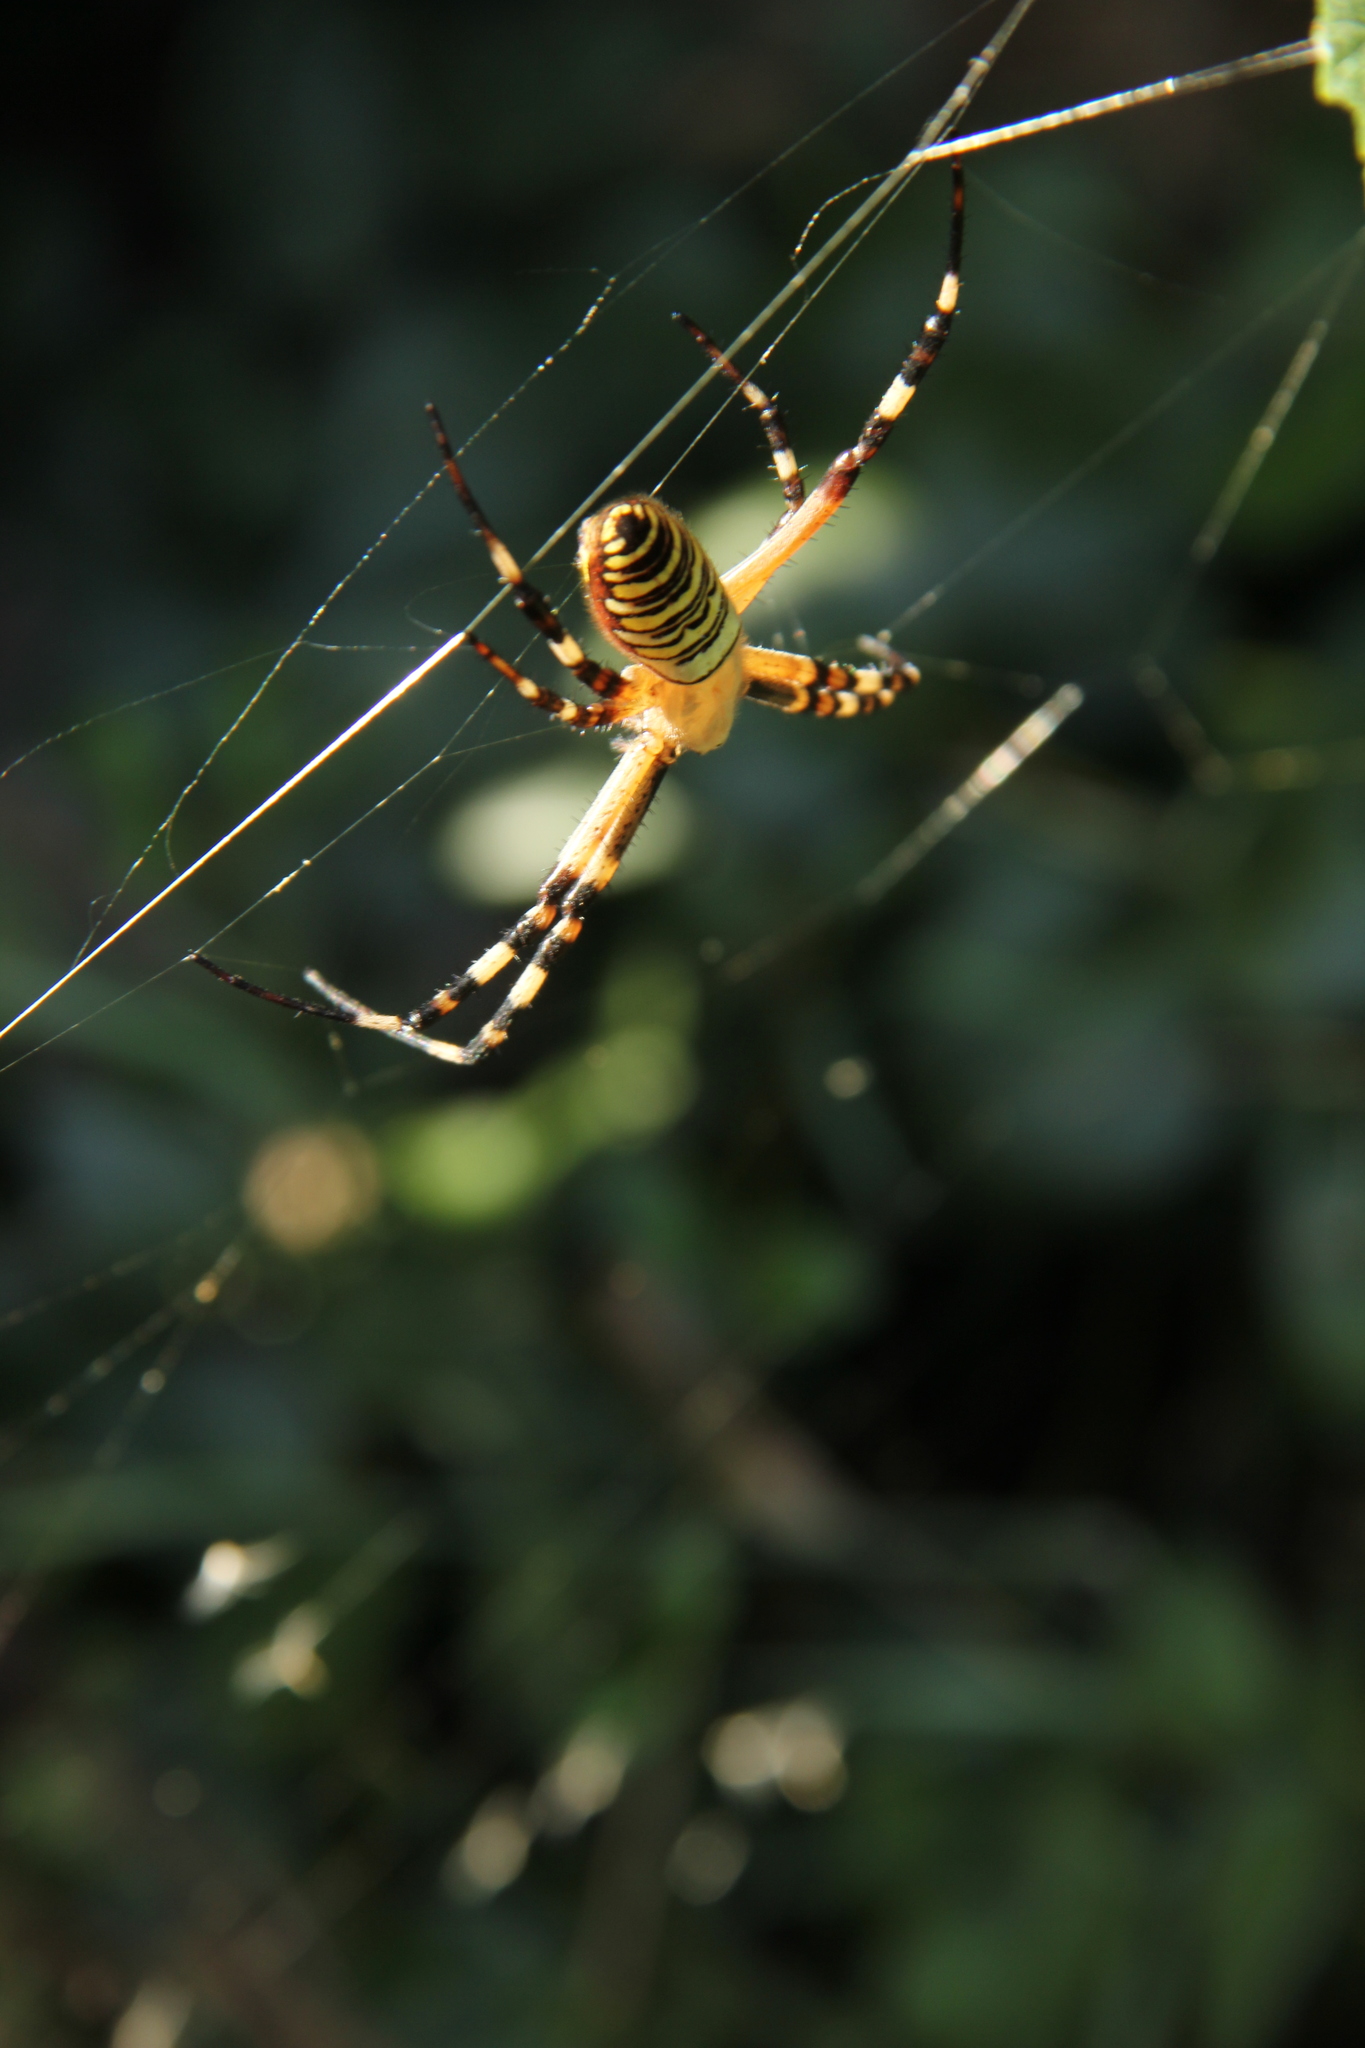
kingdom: Animalia
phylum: Arthropoda
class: Arachnida
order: Araneae
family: Araneidae
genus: Argiope
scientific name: Argiope bruennichi
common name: Wasp spider
